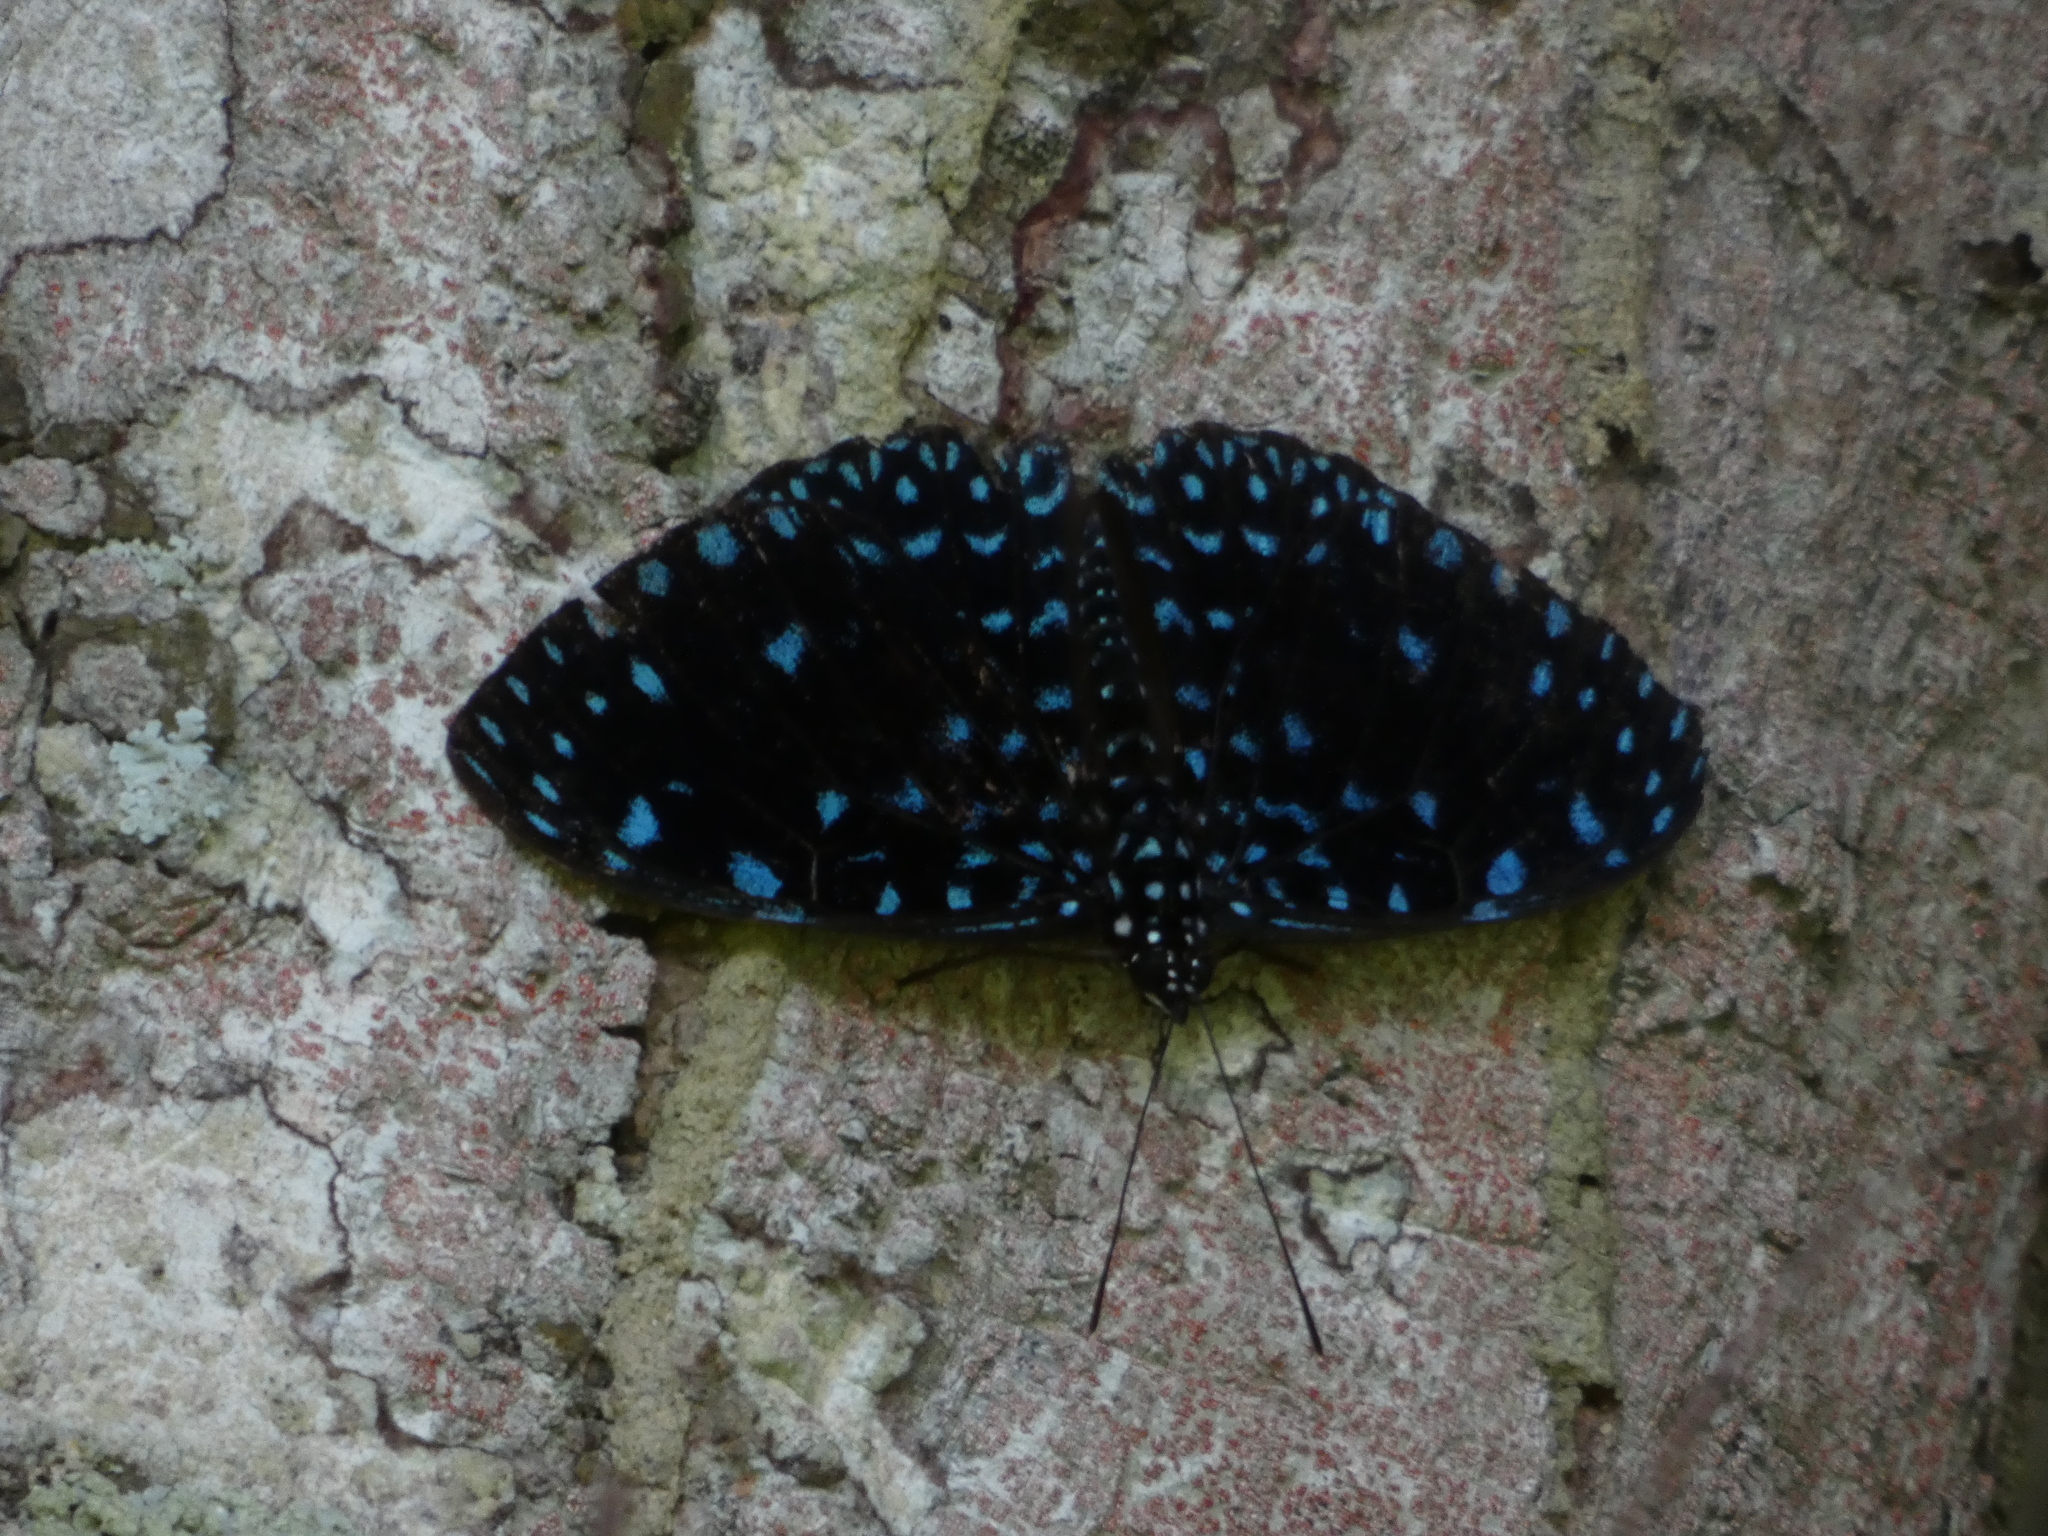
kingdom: Animalia
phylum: Arthropoda
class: Insecta
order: Lepidoptera
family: Nymphalidae
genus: Hamadryas
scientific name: Hamadryas laodamia
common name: Starry night cracker
